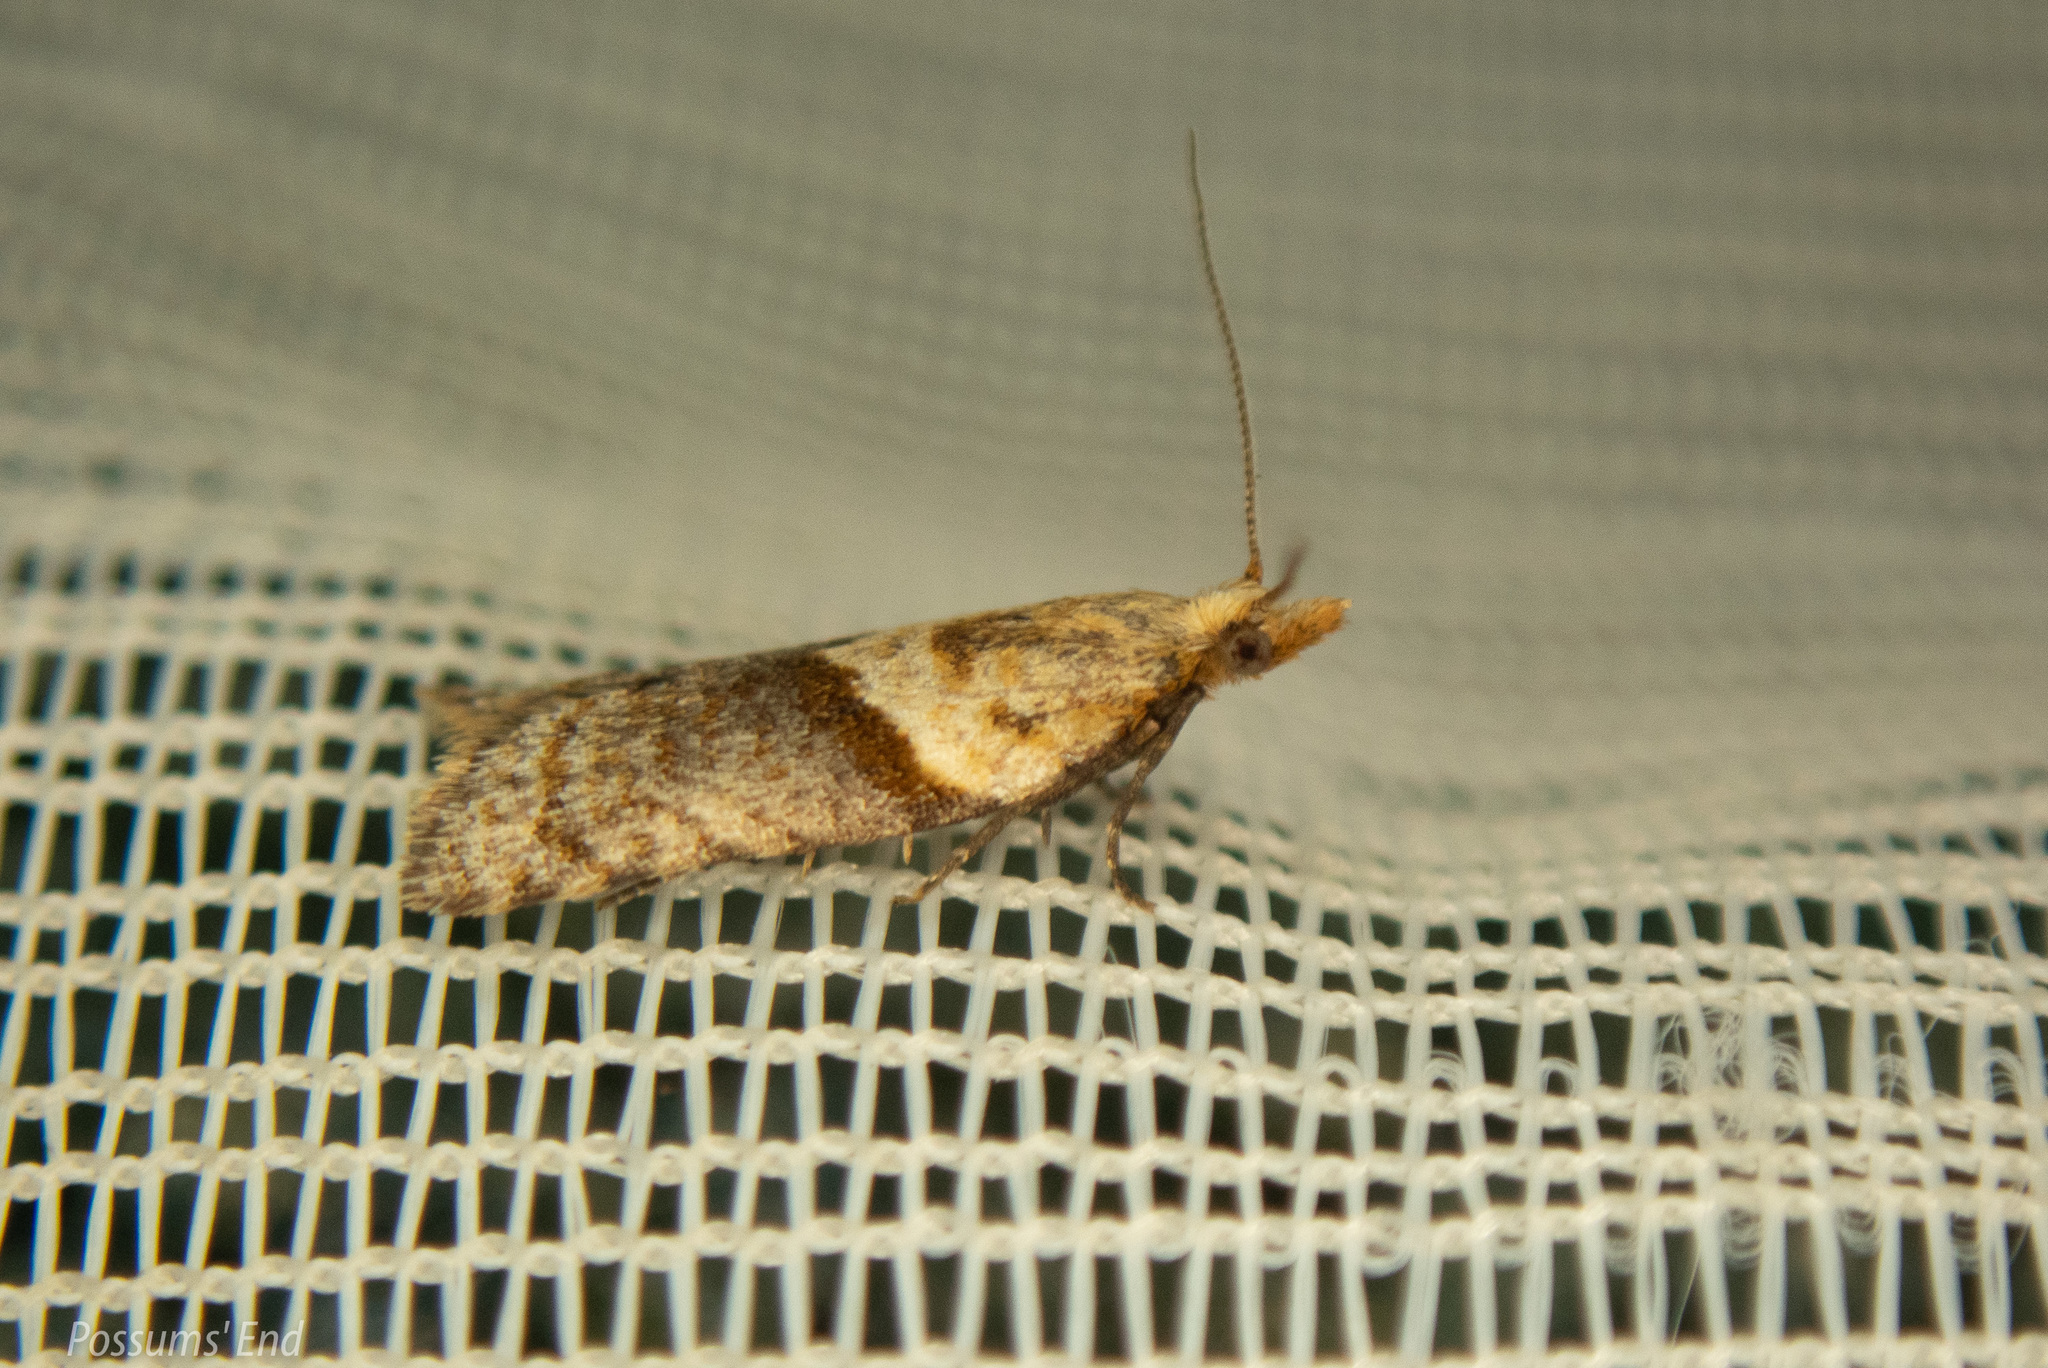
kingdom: Animalia
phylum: Arthropoda
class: Insecta
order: Lepidoptera
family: Tortricidae
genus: Epichorista
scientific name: Epichorista hemionana
